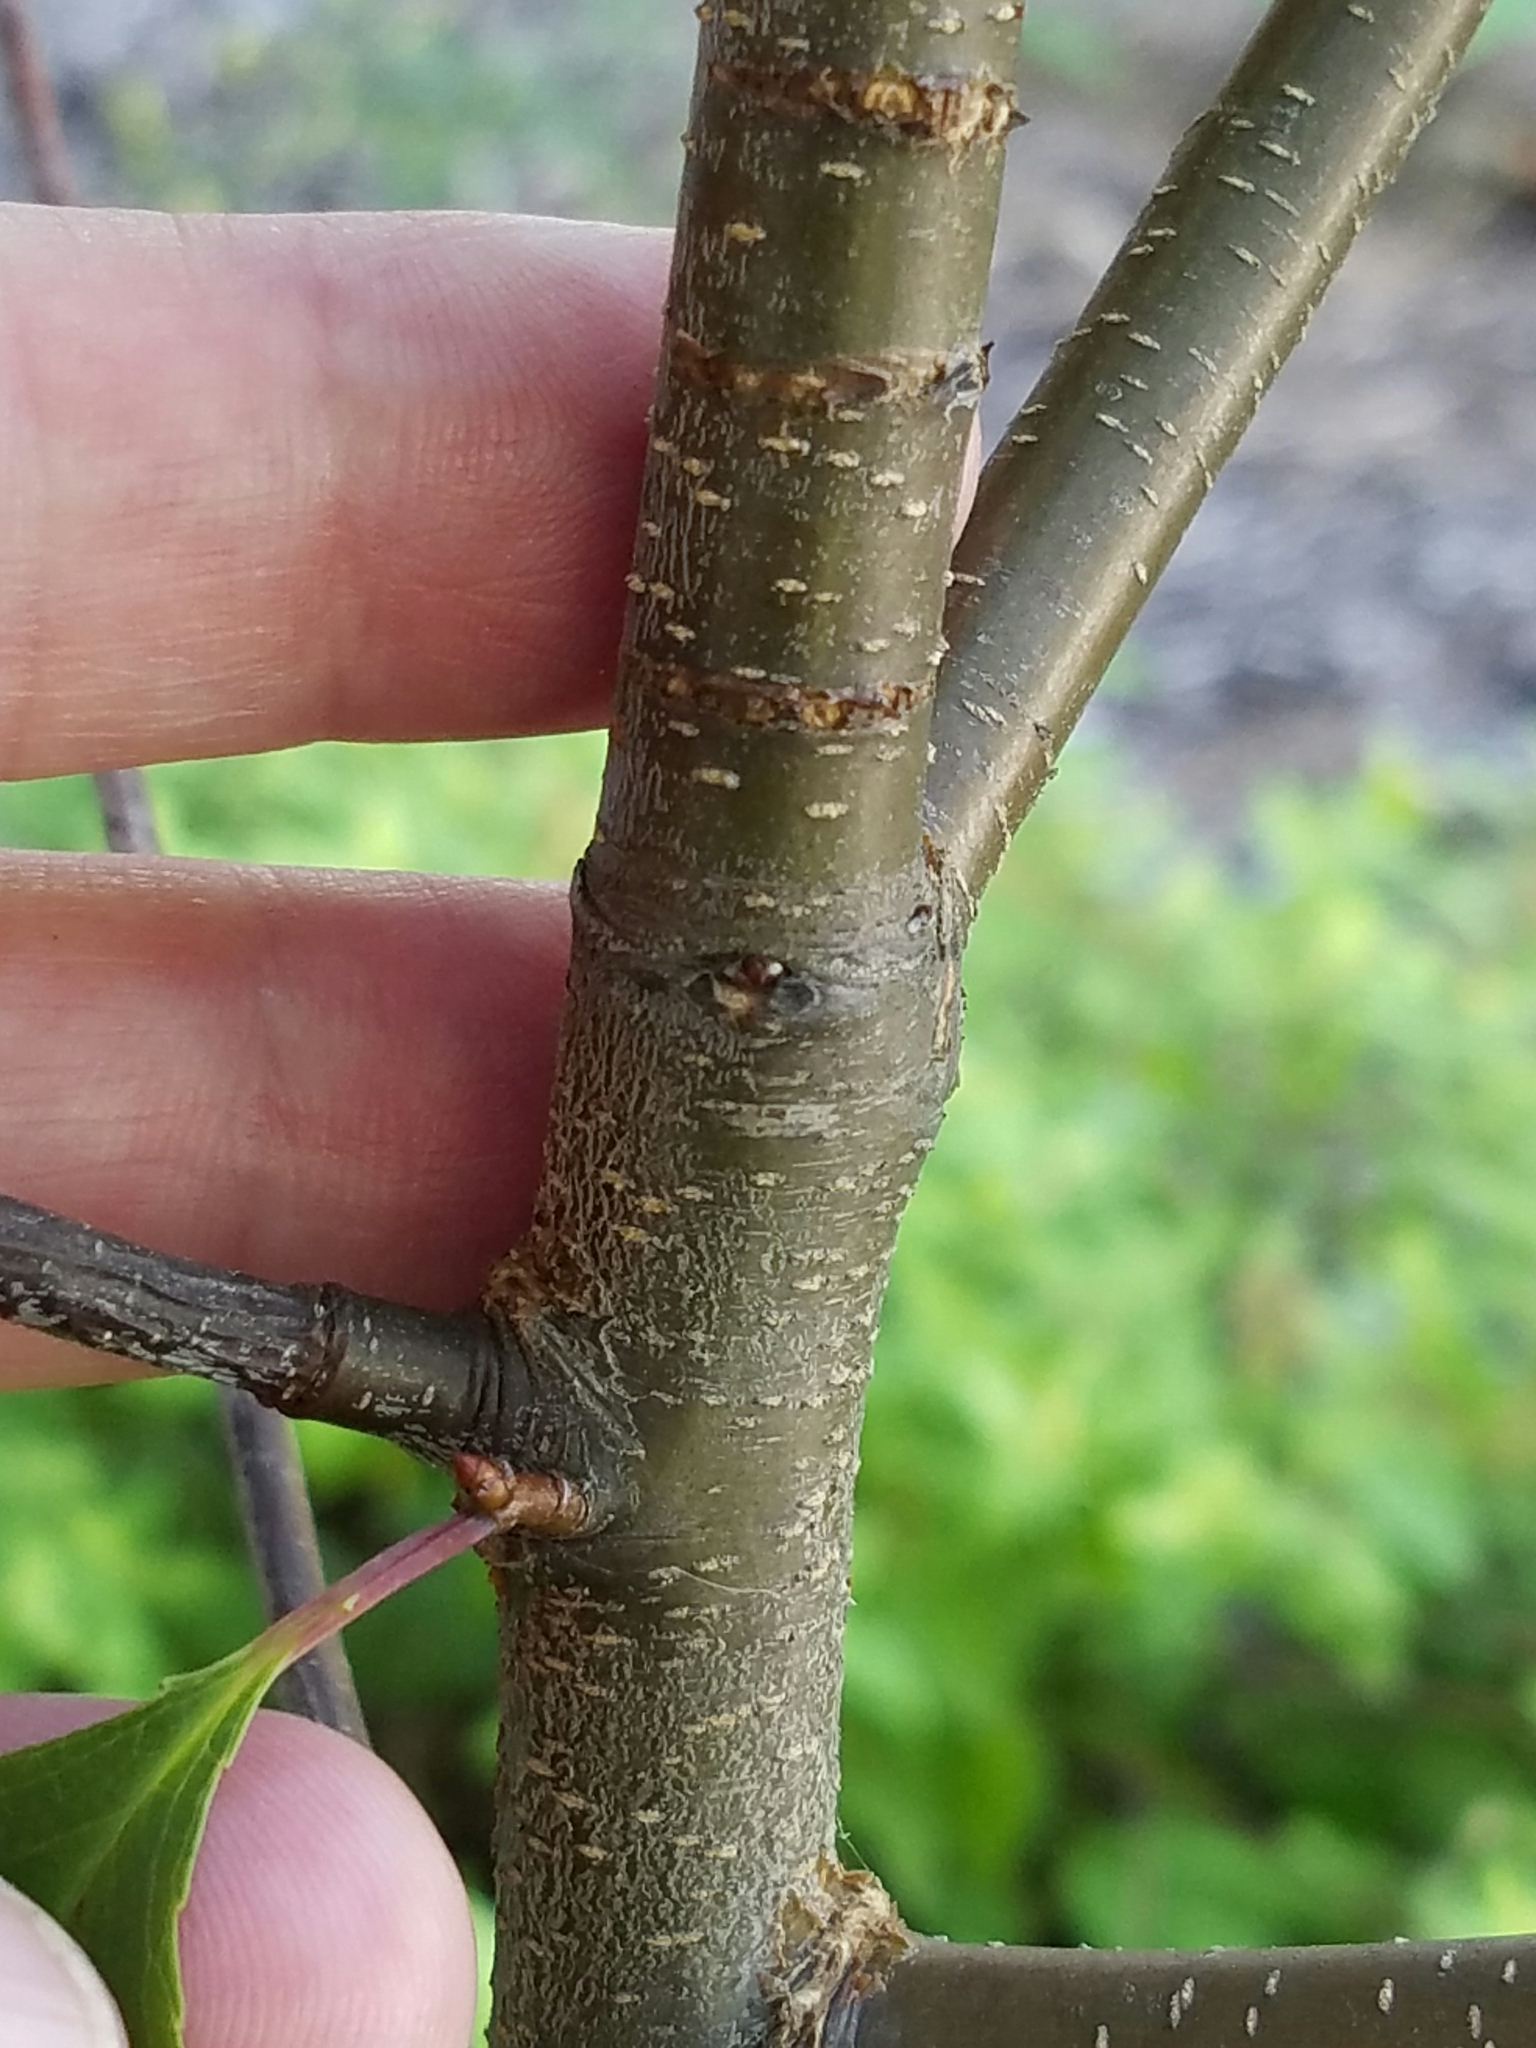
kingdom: Plantae
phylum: Tracheophyta
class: Magnoliopsida
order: Rosales
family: Rosaceae
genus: Prunus
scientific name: Prunus serotina
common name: Black cherry
